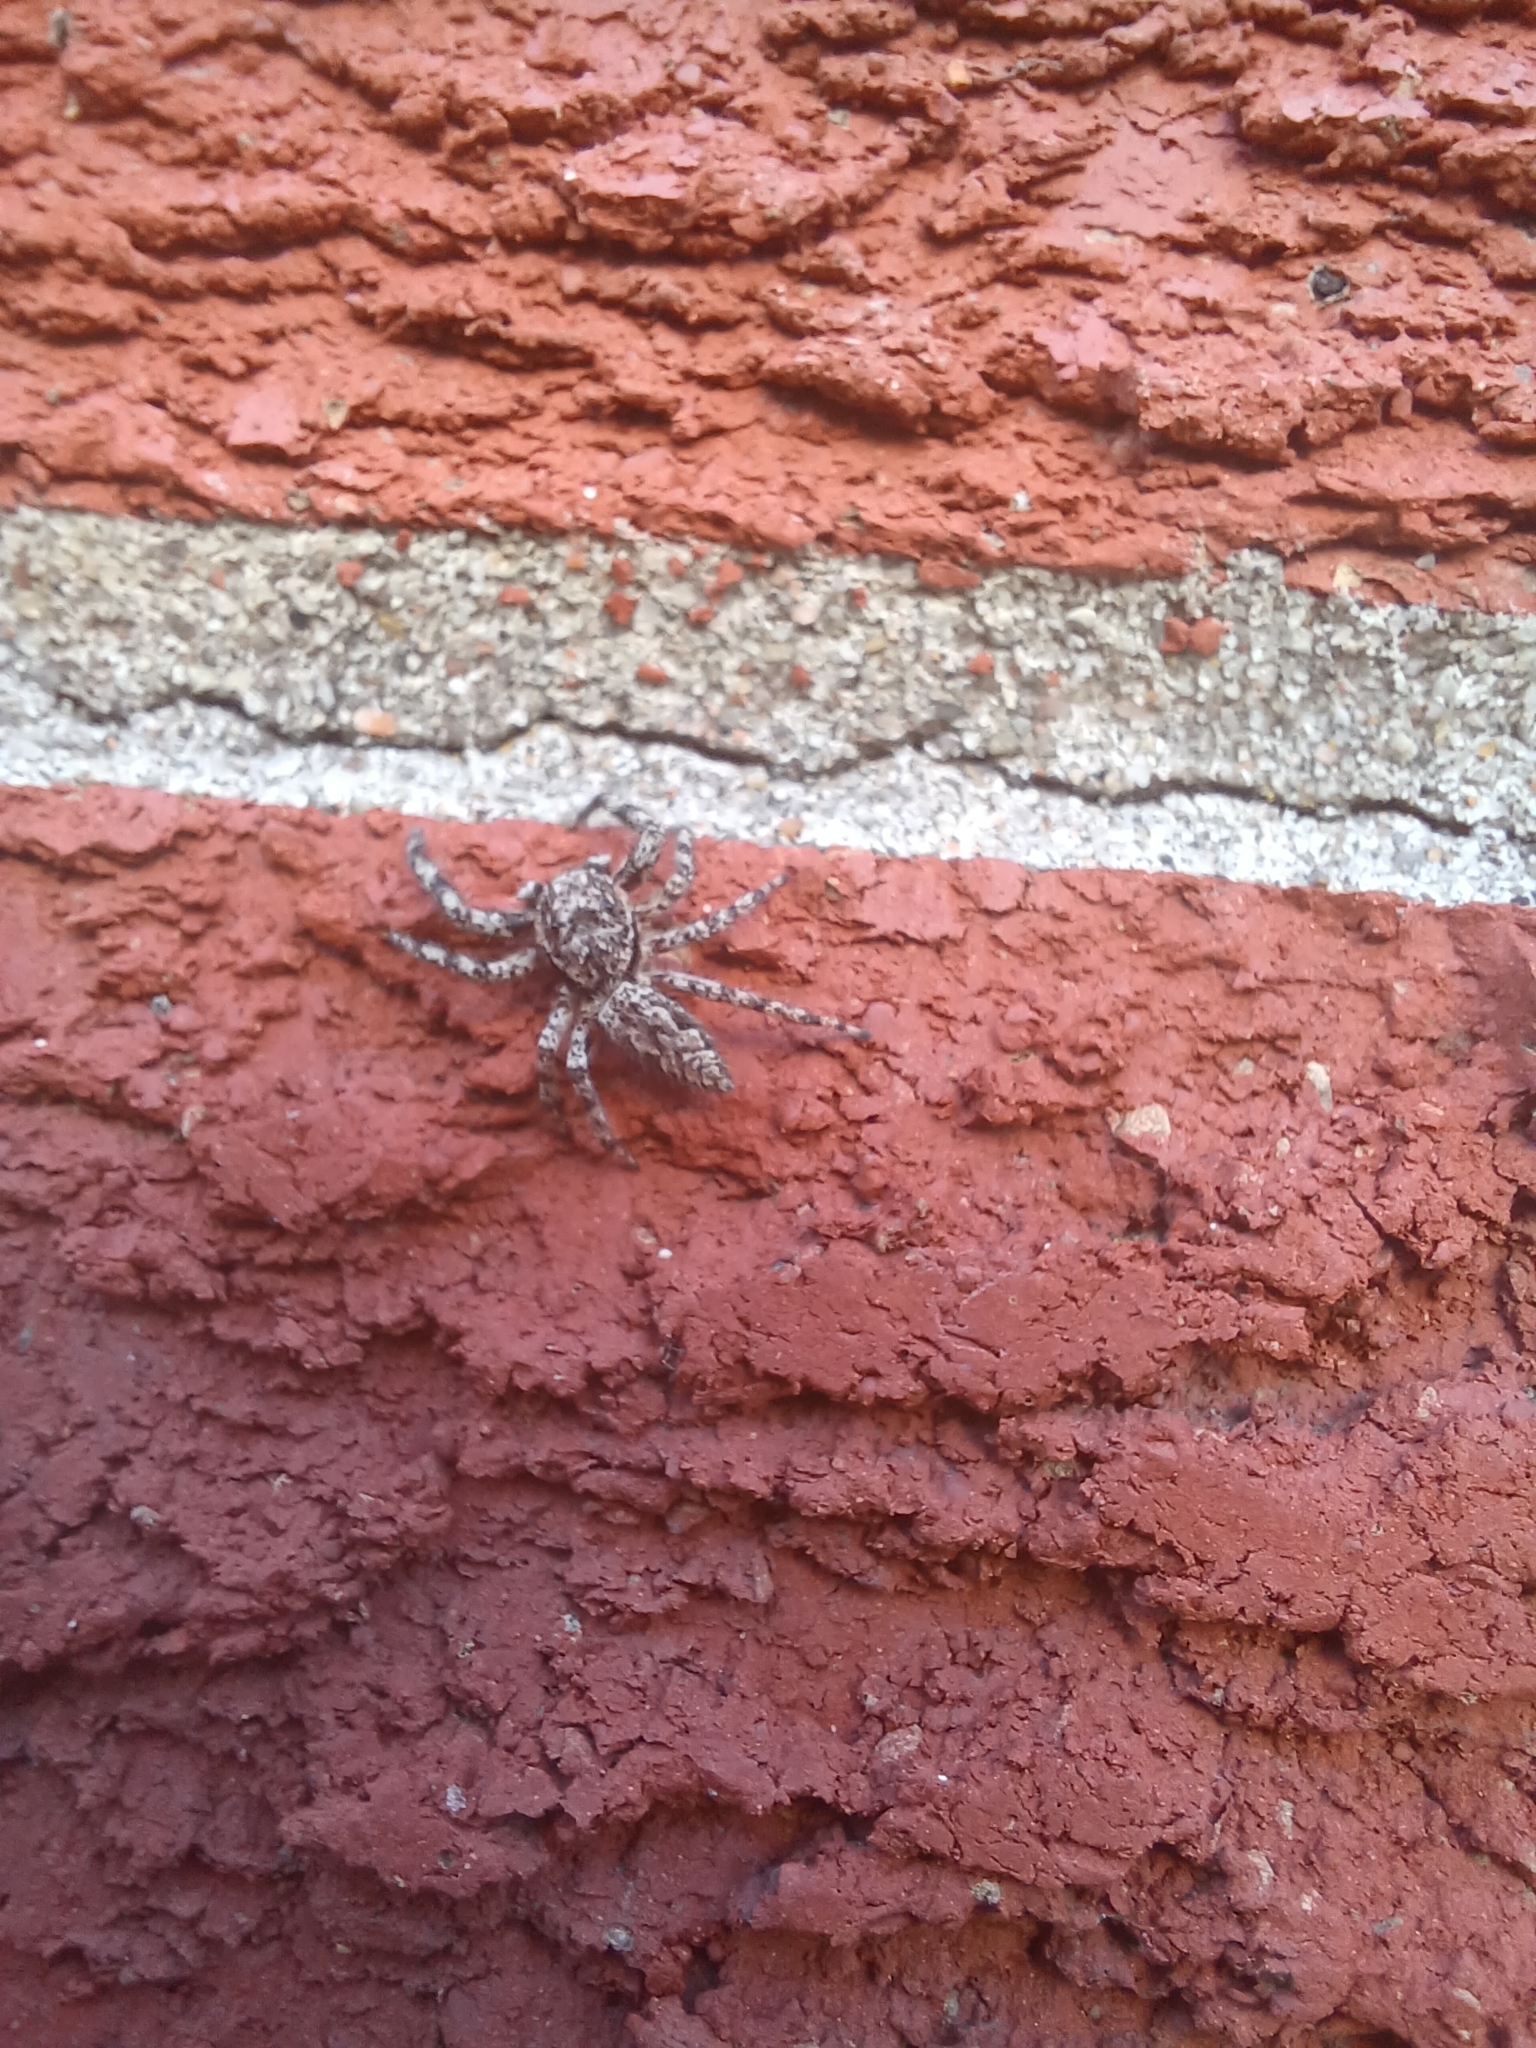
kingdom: Animalia
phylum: Arthropoda
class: Arachnida
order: Araneae
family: Salticidae
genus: Platycryptus
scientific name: Platycryptus undatus
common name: Tan jumping spider
